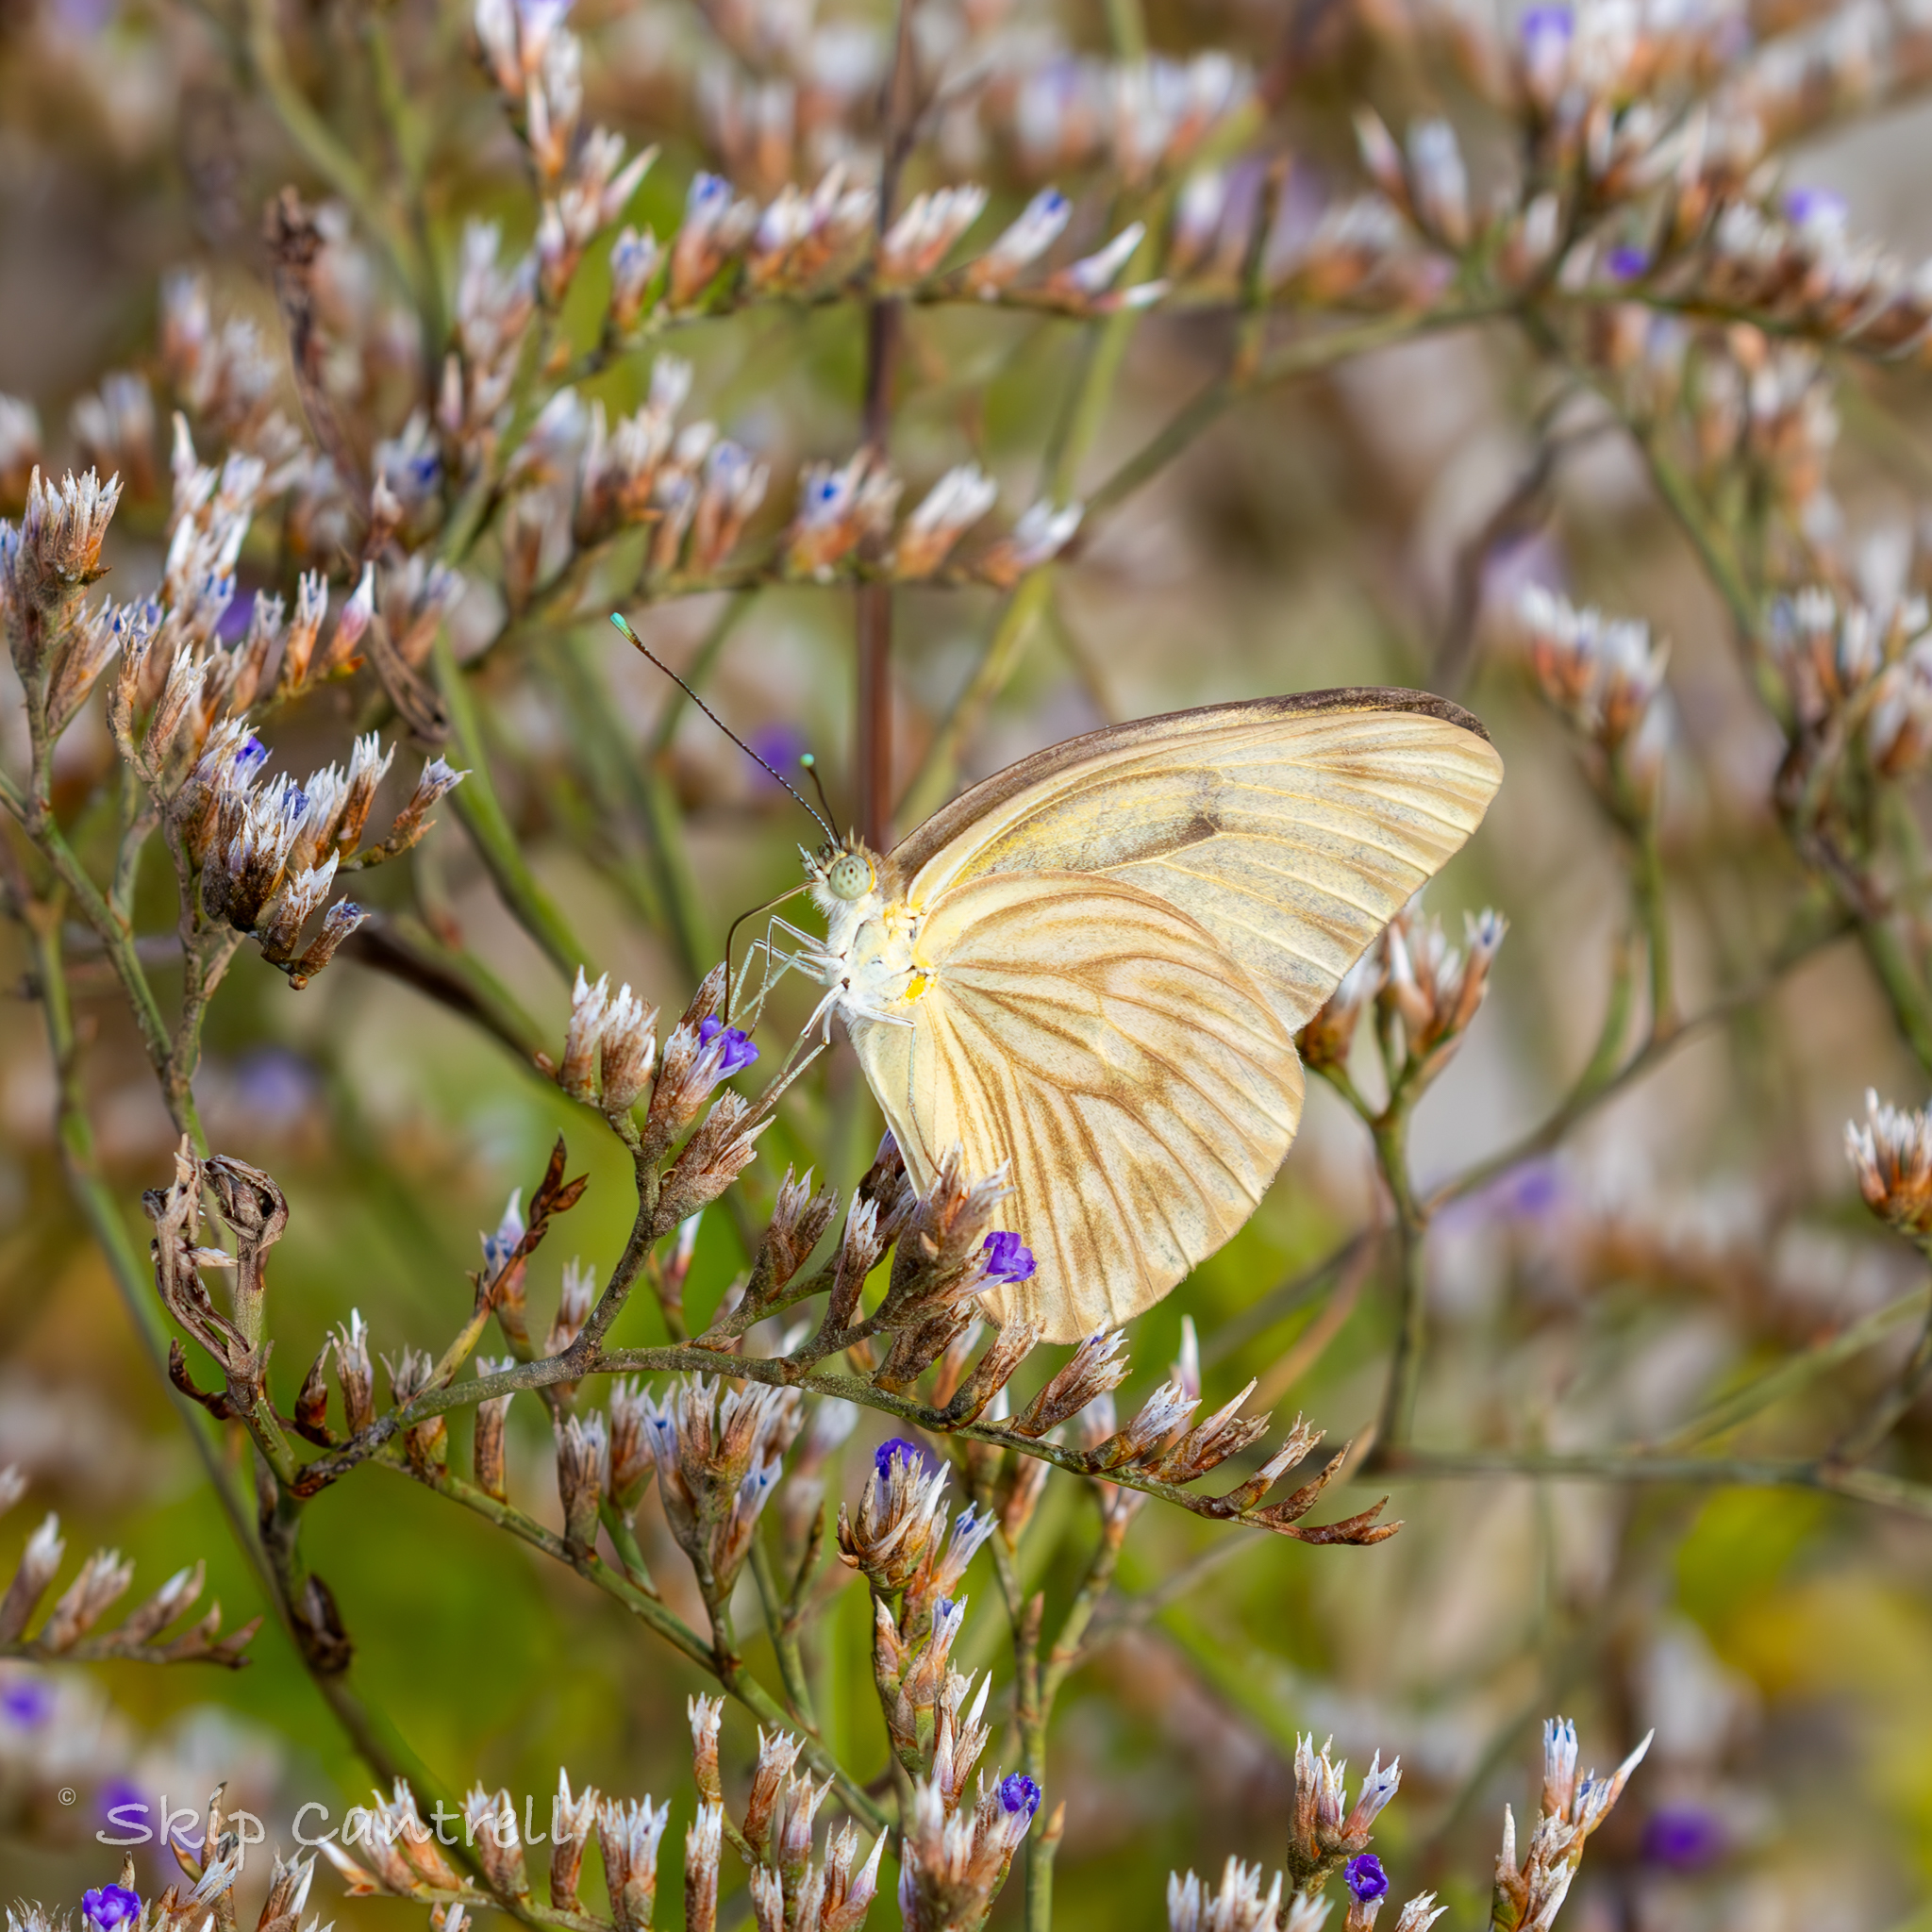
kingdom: Animalia
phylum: Arthropoda
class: Insecta
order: Lepidoptera
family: Pieridae
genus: Ascia
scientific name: Ascia monuste
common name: Great southern white
